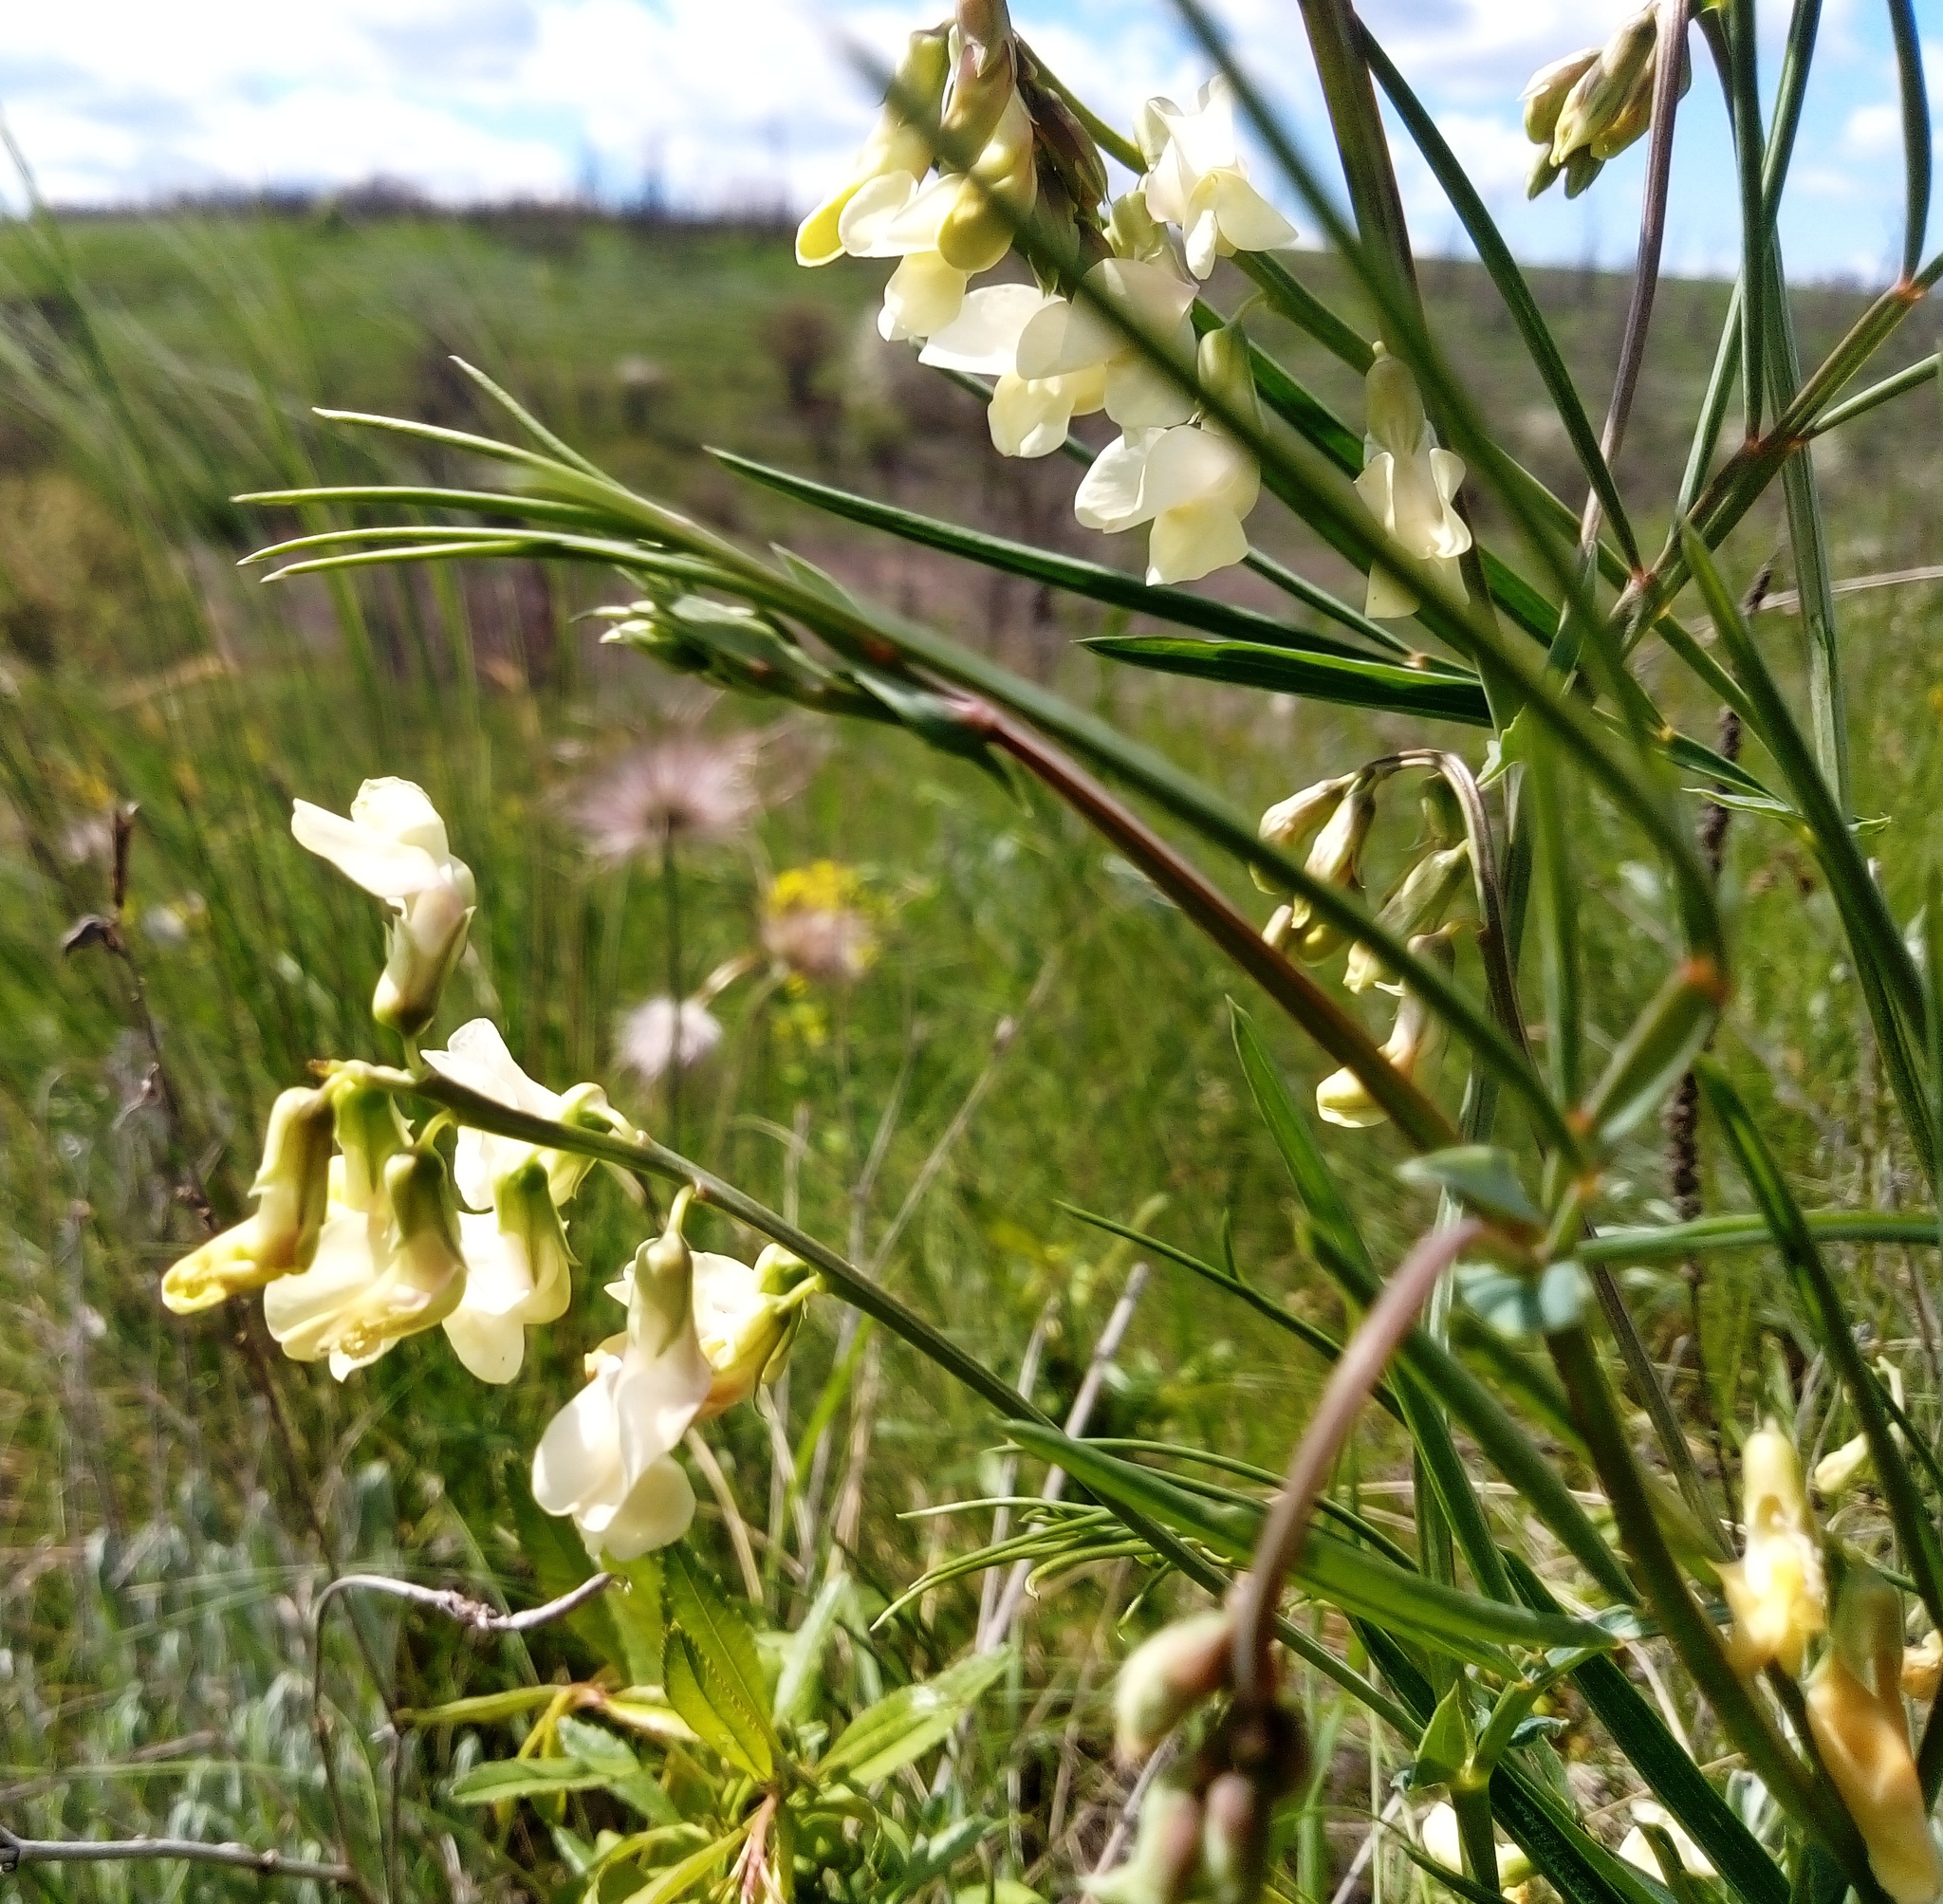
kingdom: Plantae
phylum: Tracheophyta
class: Magnoliopsida
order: Fabales
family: Fabaceae
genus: Lathyrus
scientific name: Lathyrus pannonicus
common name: Pea
